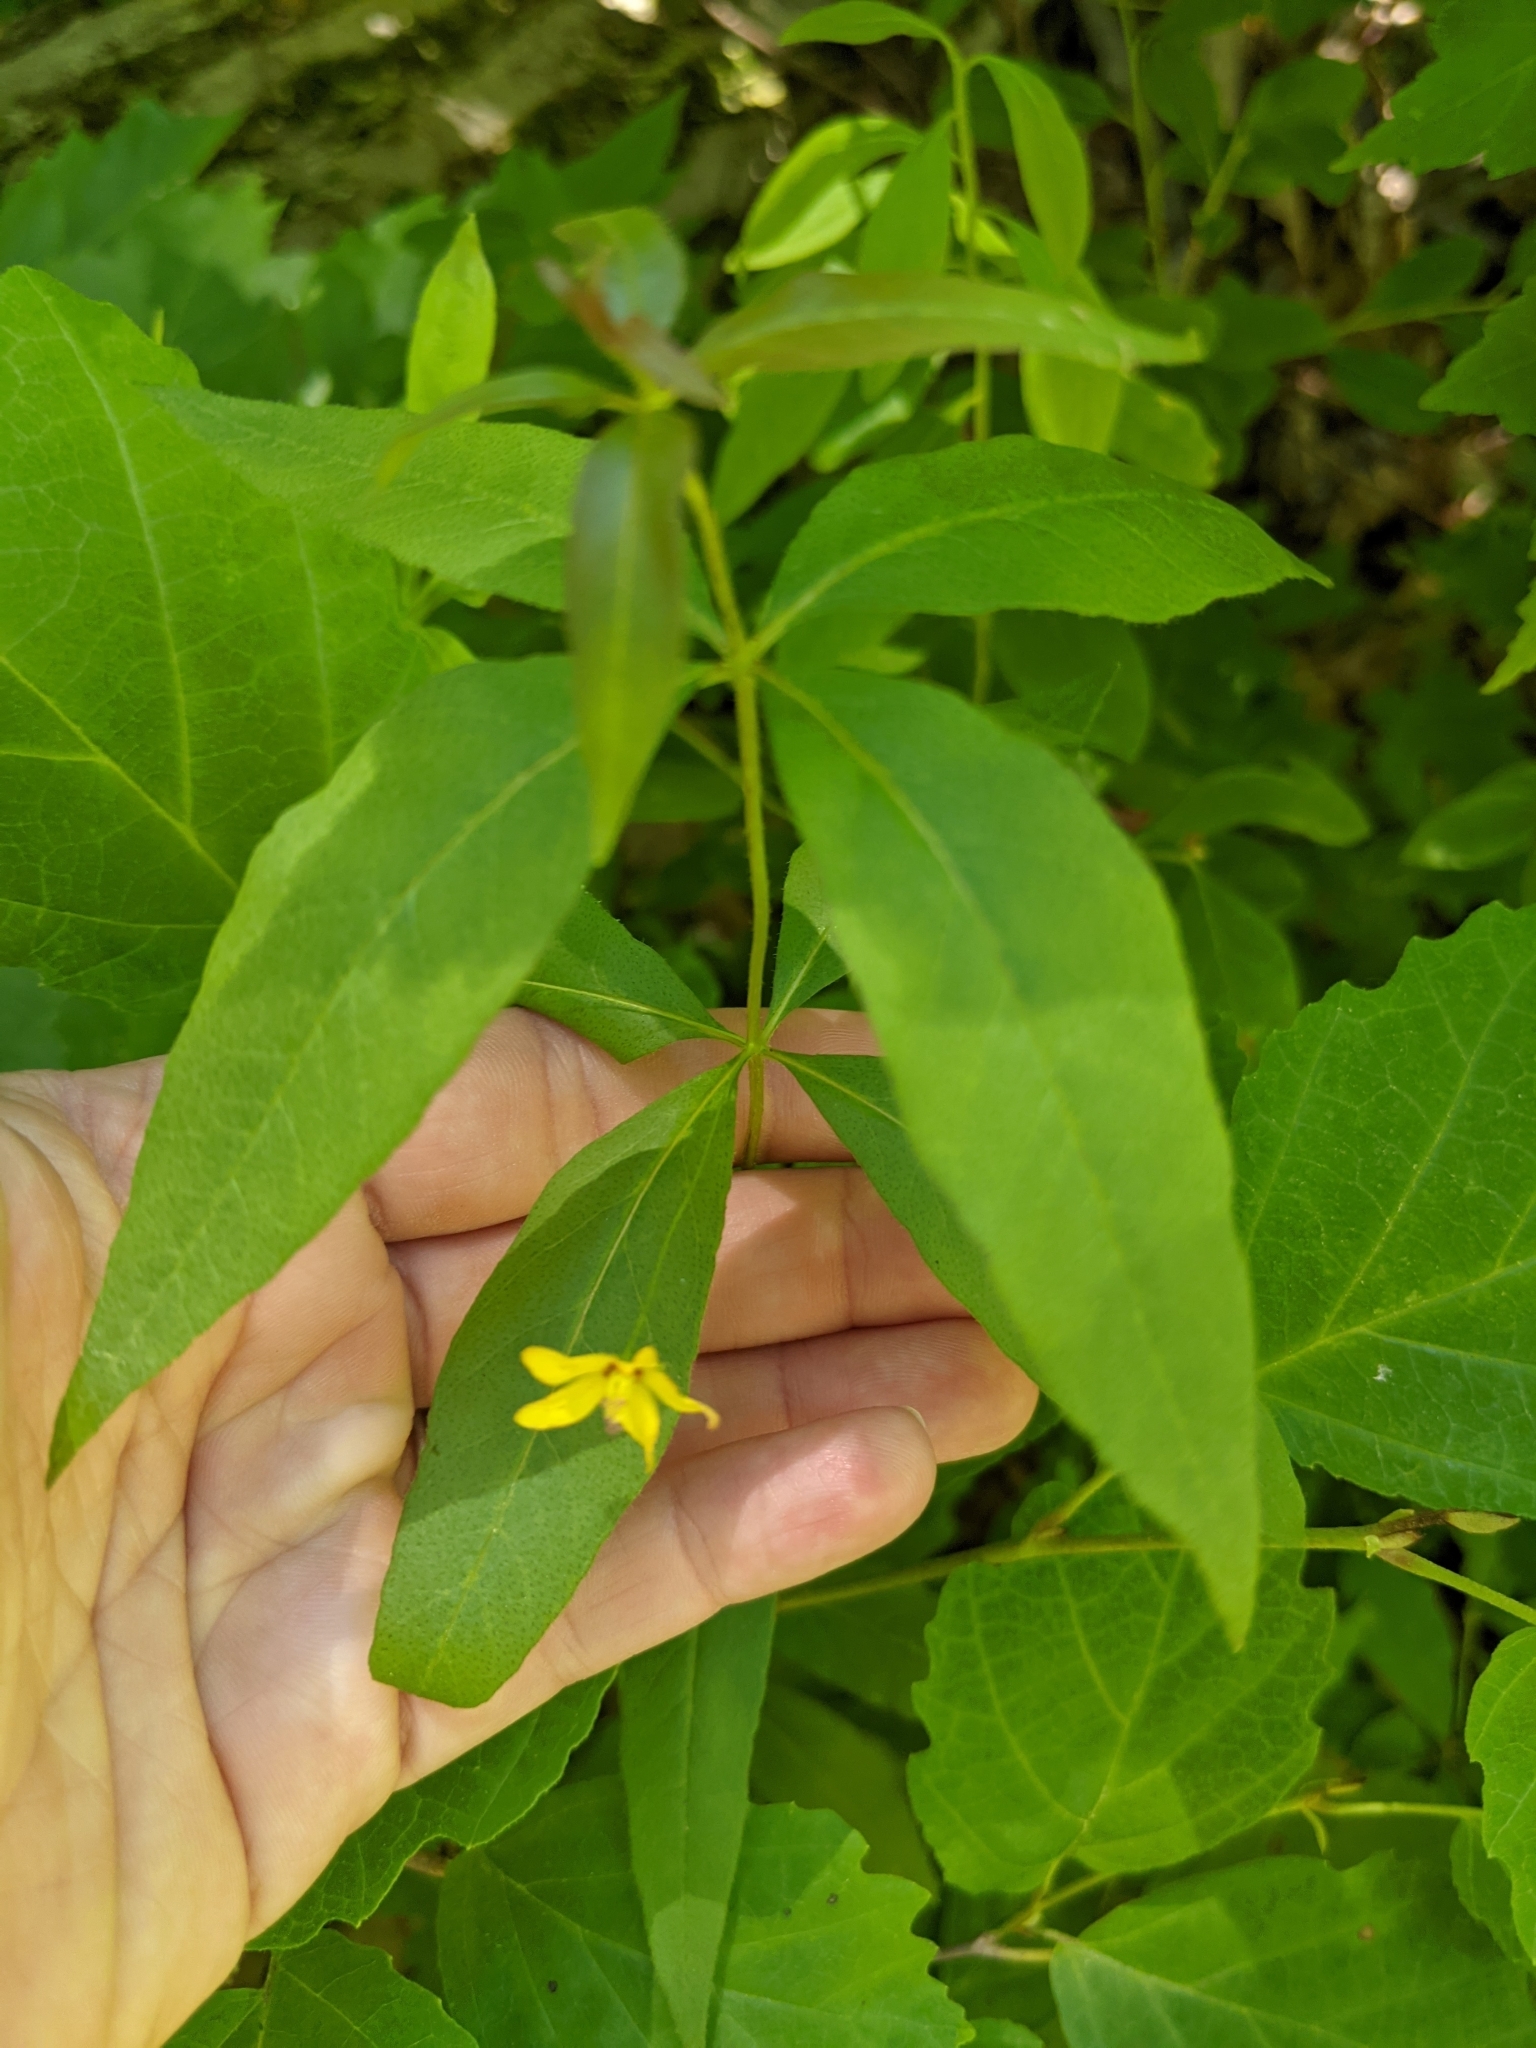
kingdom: Plantae
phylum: Tracheophyta
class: Magnoliopsida
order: Ericales
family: Primulaceae
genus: Lysimachia
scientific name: Lysimachia quadrifolia
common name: Whorled loosestrife
